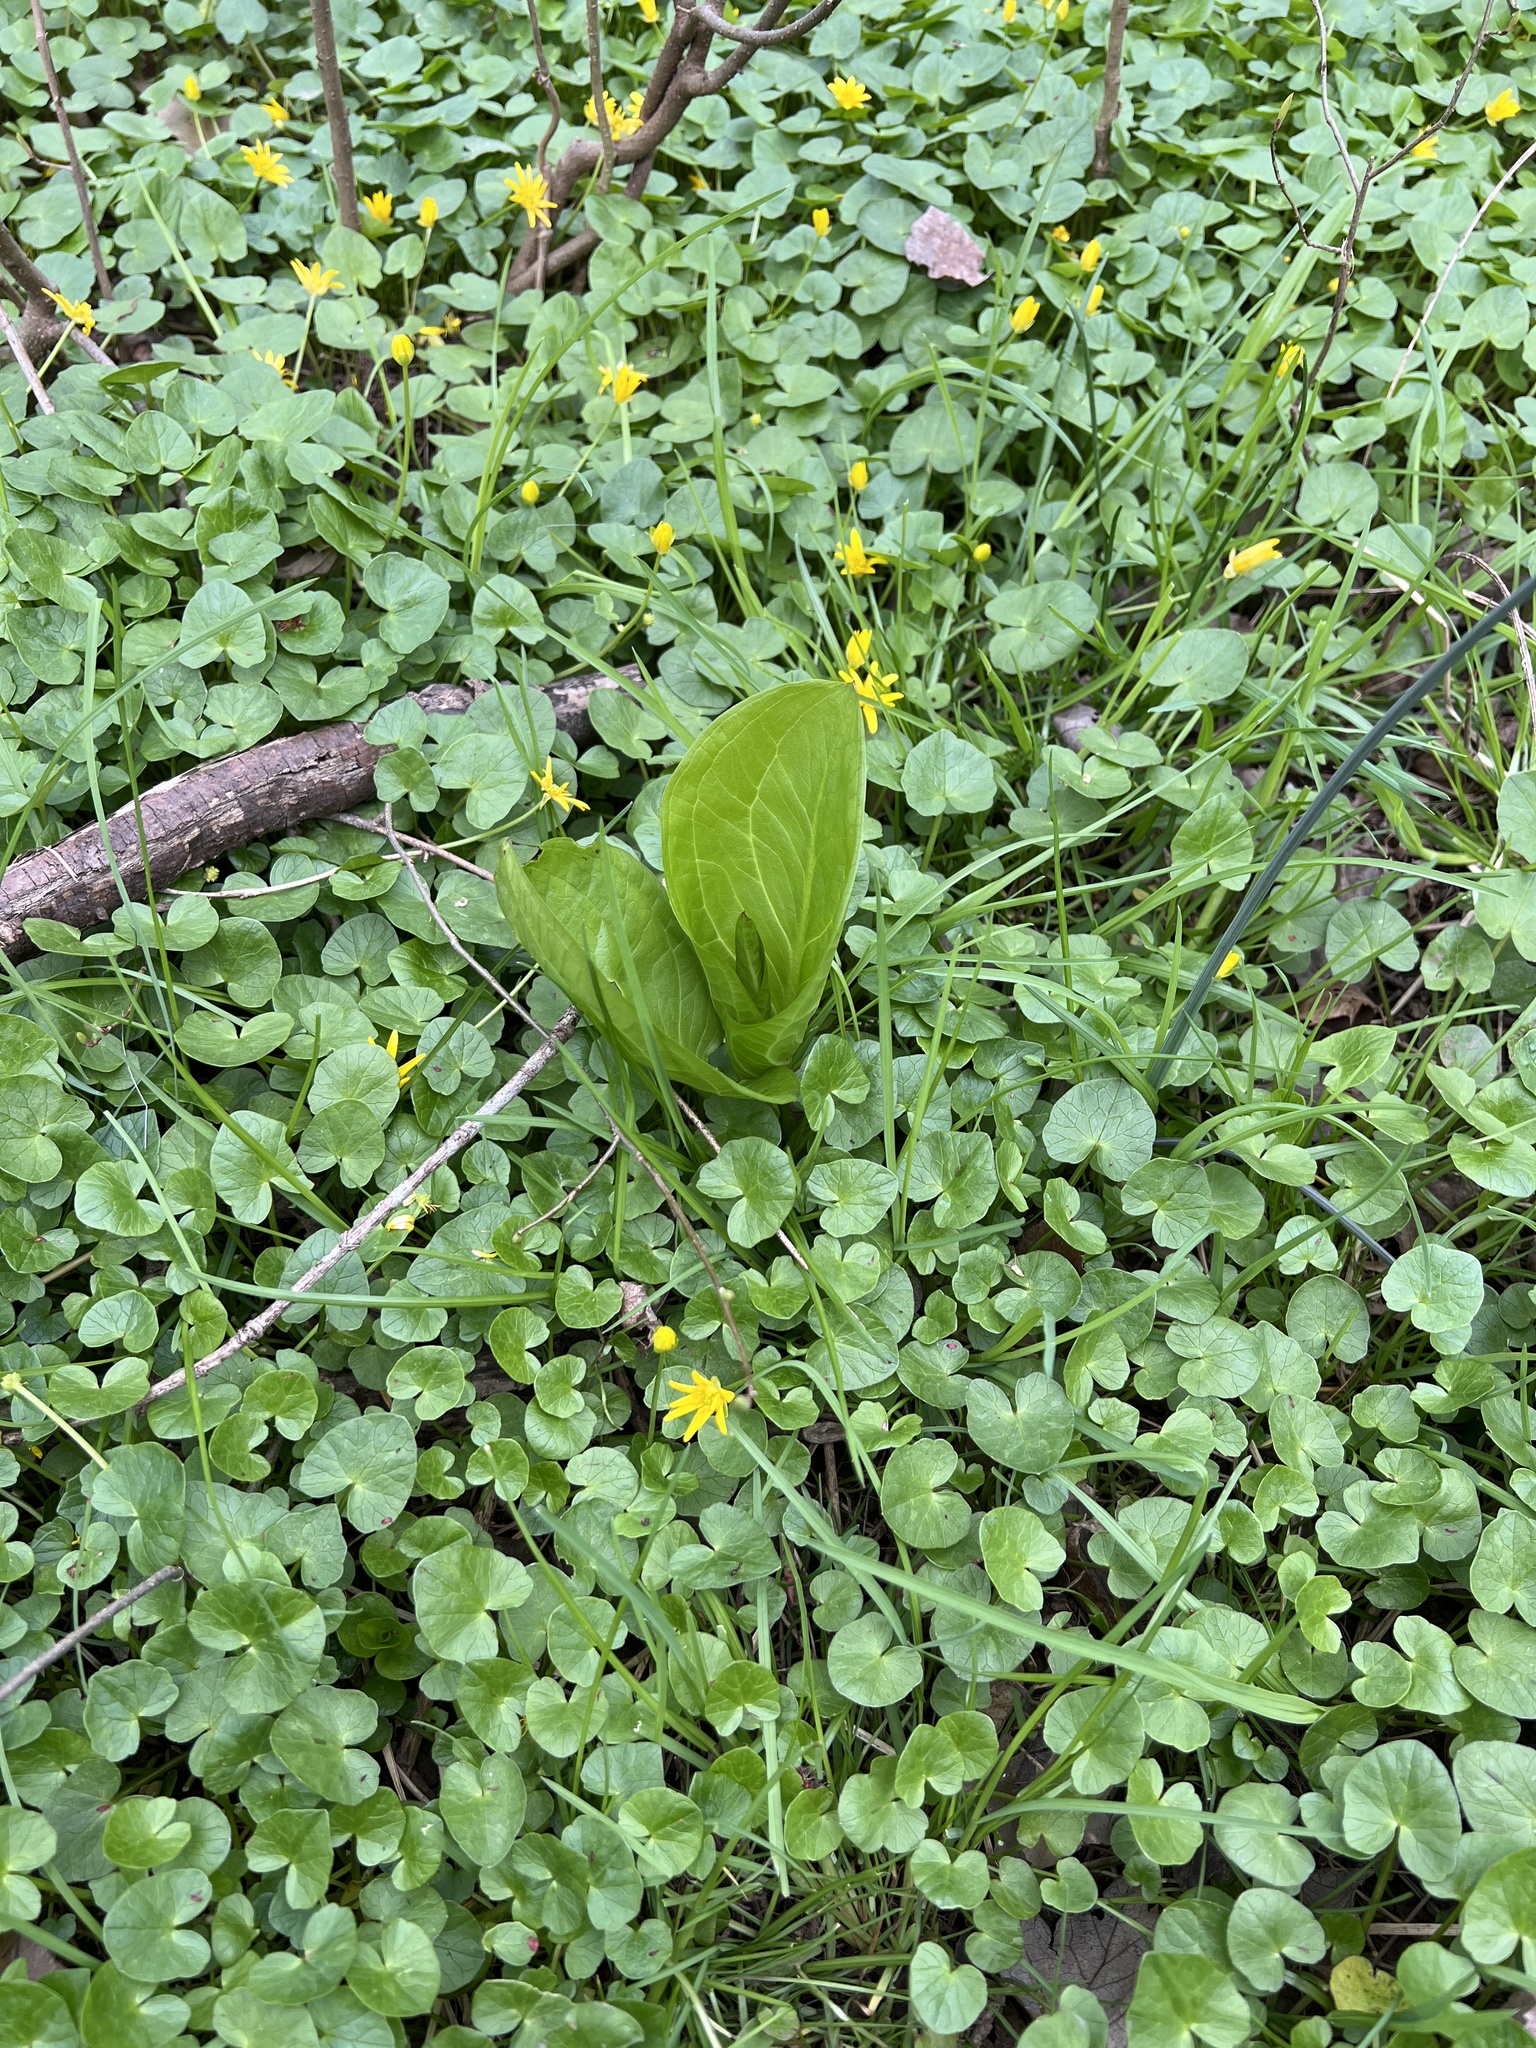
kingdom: Plantae
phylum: Tracheophyta
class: Liliopsida
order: Alismatales
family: Araceae
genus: Symplocarpus
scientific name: Symplocarpus foetidus
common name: Eastern skunk cabbage
